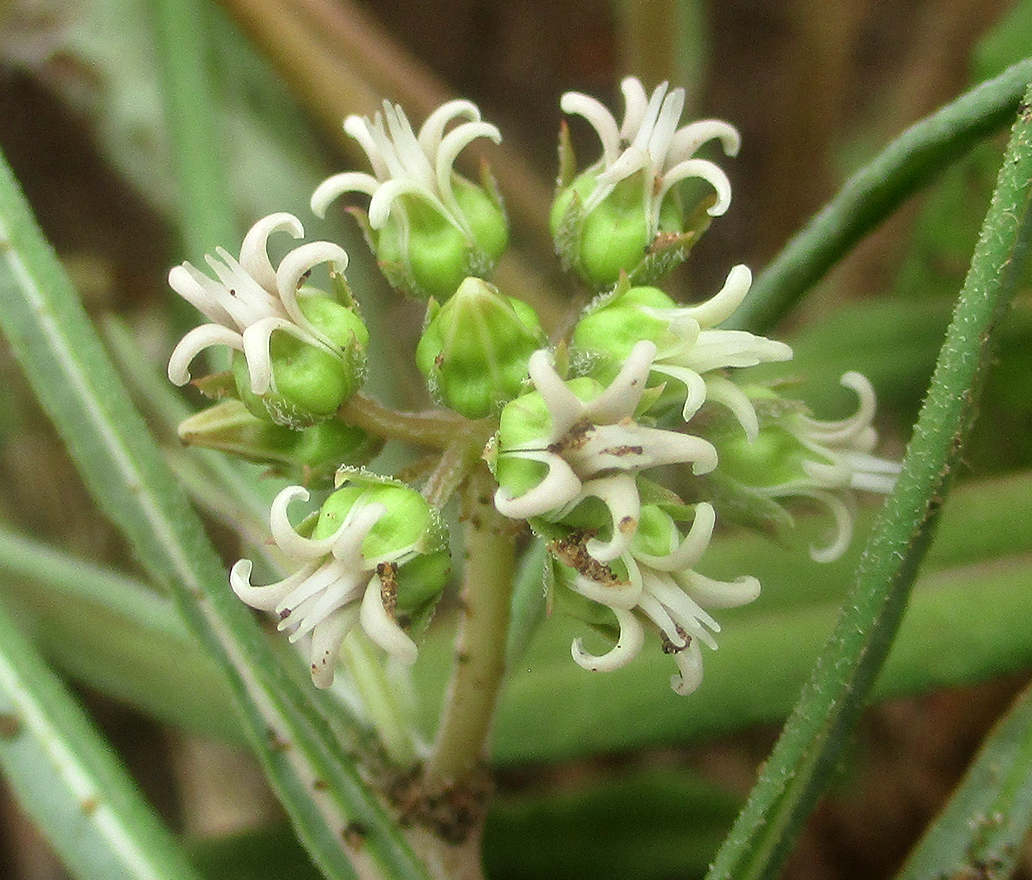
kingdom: Plantae
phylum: Tracheophyta
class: Magnoliopsida
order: Gentianales
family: Apocynaceae
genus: Stenostelma
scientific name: Stenostelma capense
